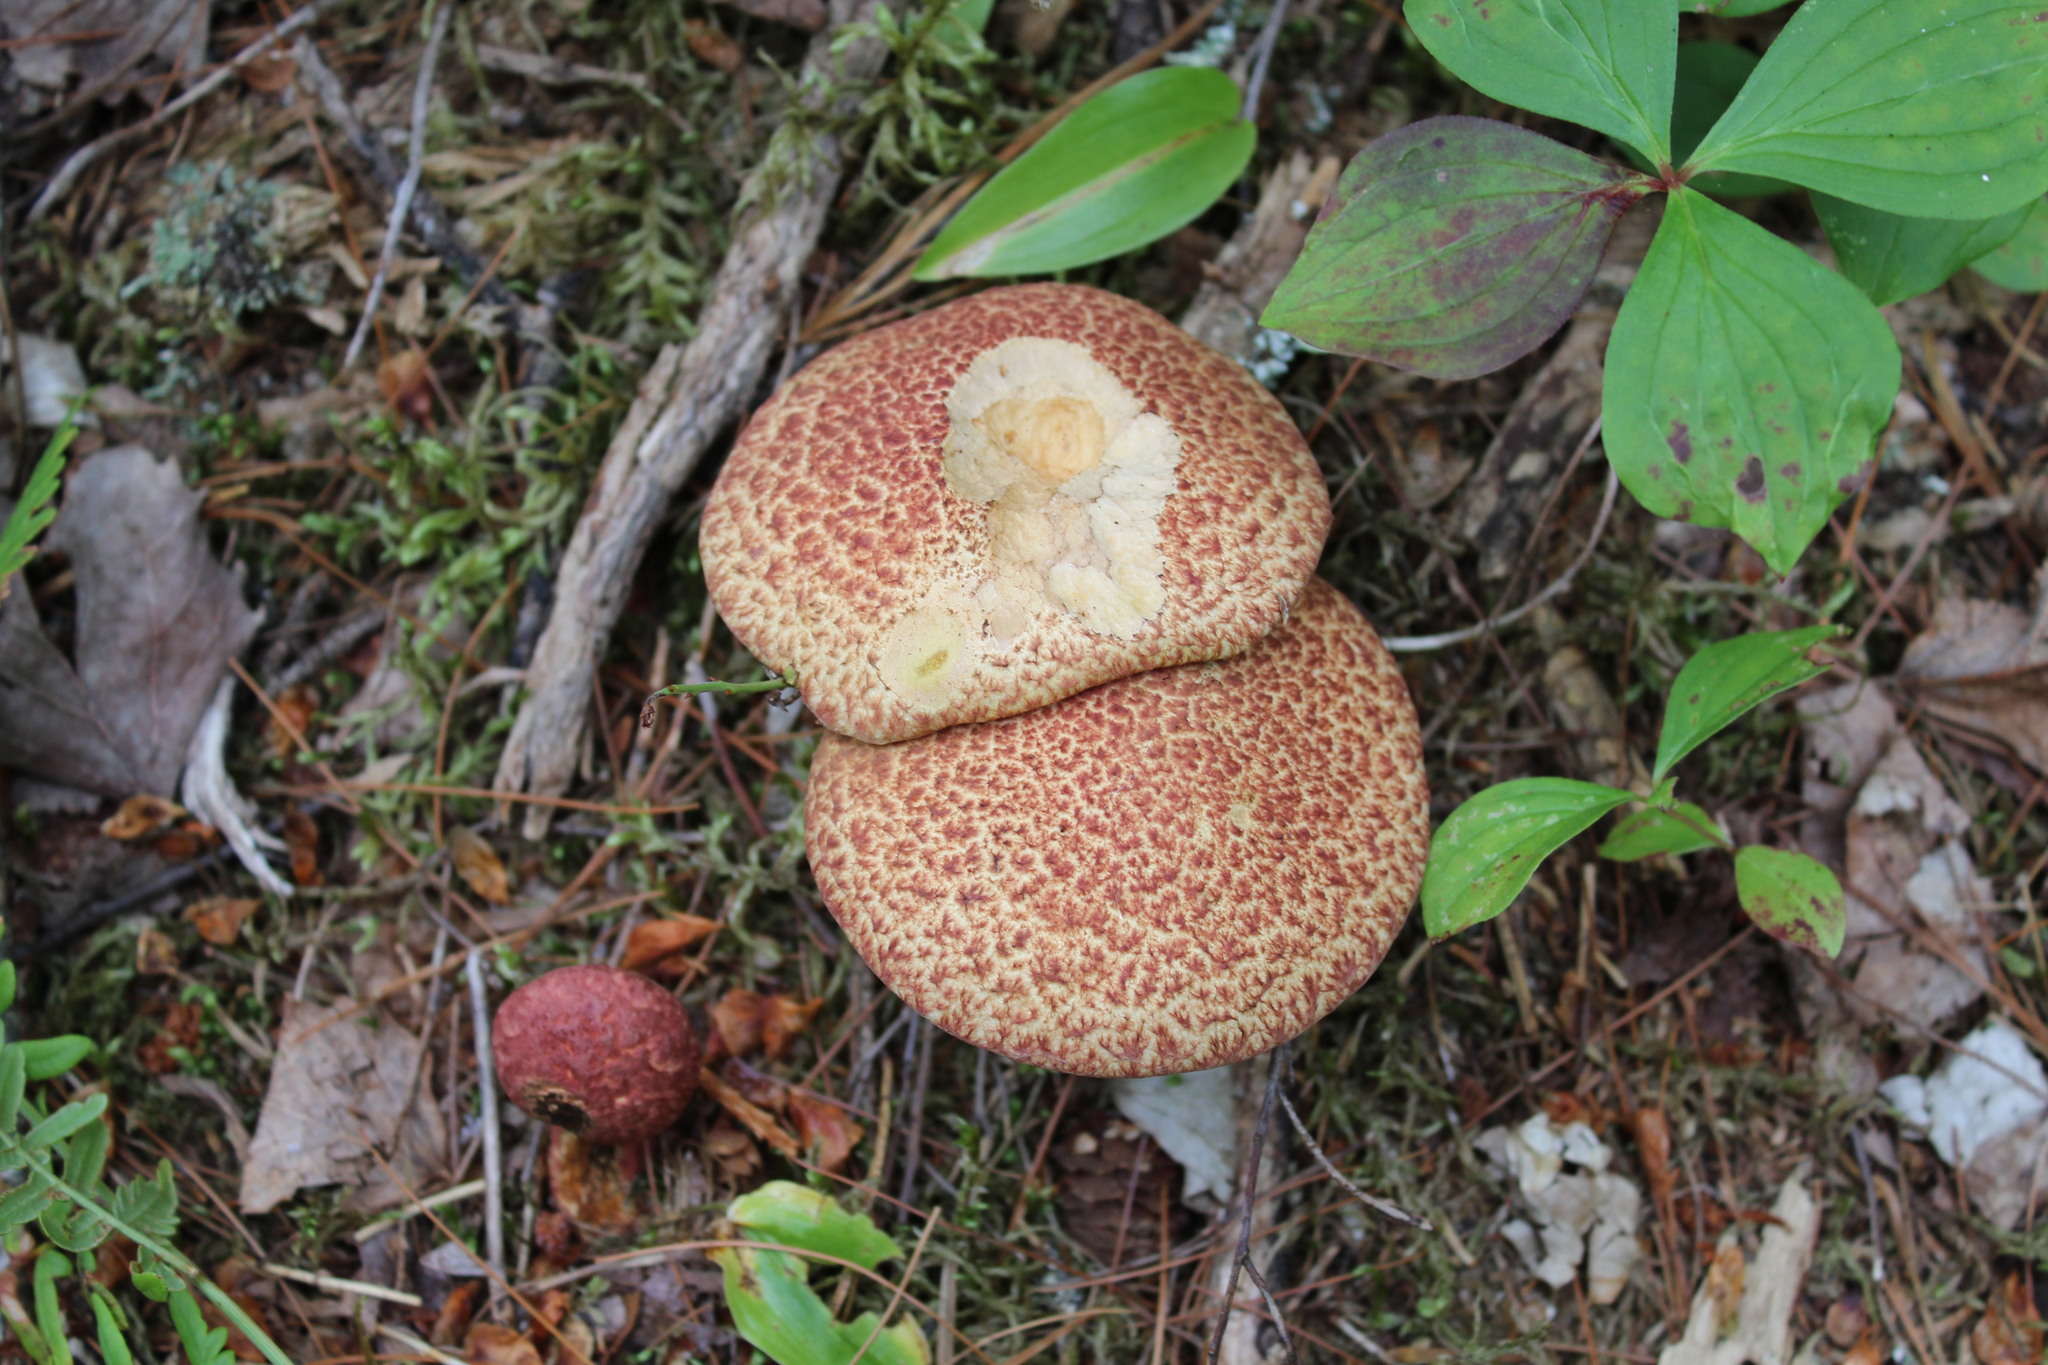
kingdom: Fungi
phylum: Basidiomycota
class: Agaricomycetes
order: Boletales
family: Suillaceae
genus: Suillus
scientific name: Suillus spraguei
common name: Painted suillus
